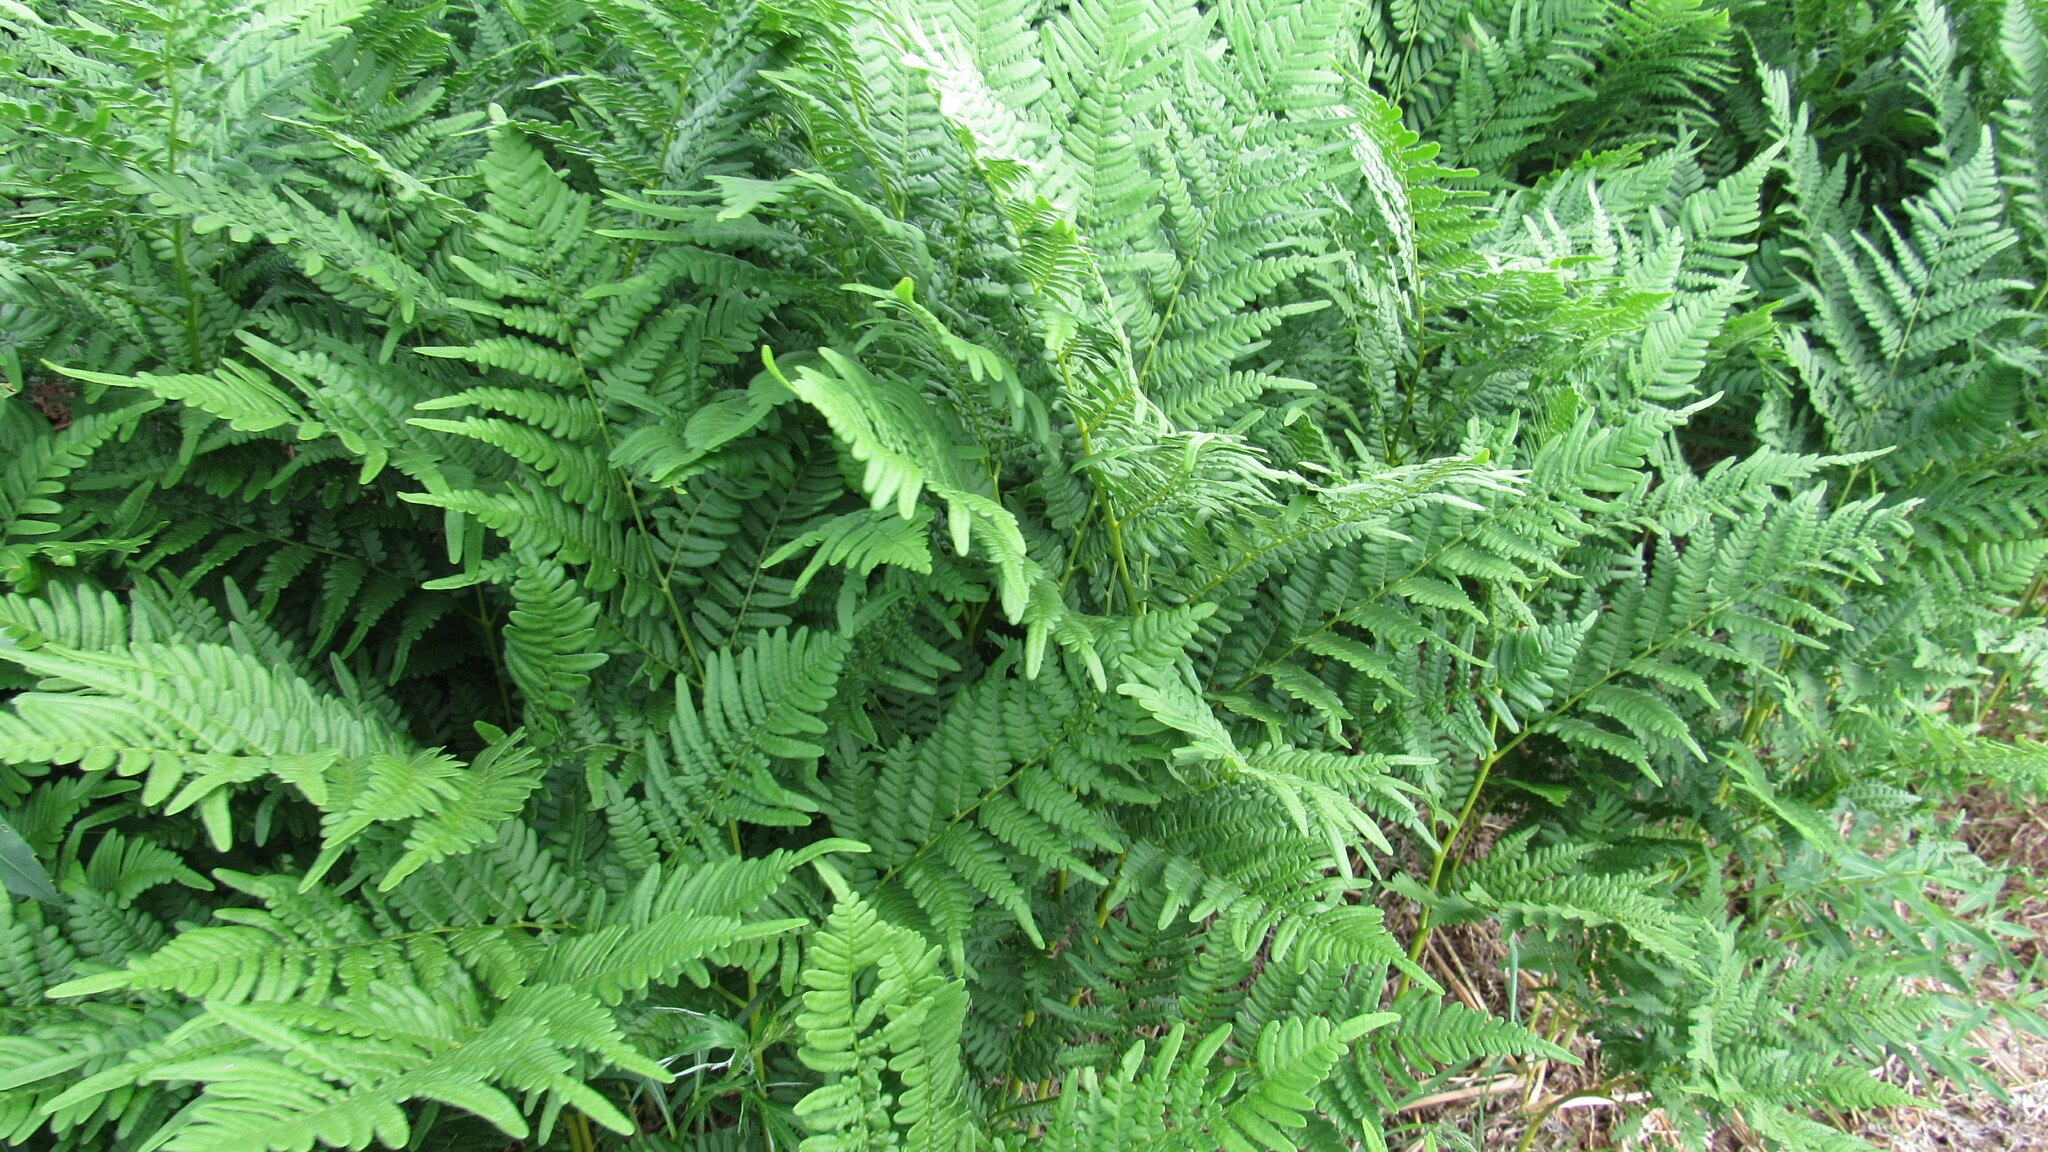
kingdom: Plantae
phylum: Tracheophyta
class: Polypodiopsida
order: Polypodiales
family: Dennstaedtiaceae
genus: Pteridium
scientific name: Pteridium aquilinum
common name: Bracken
